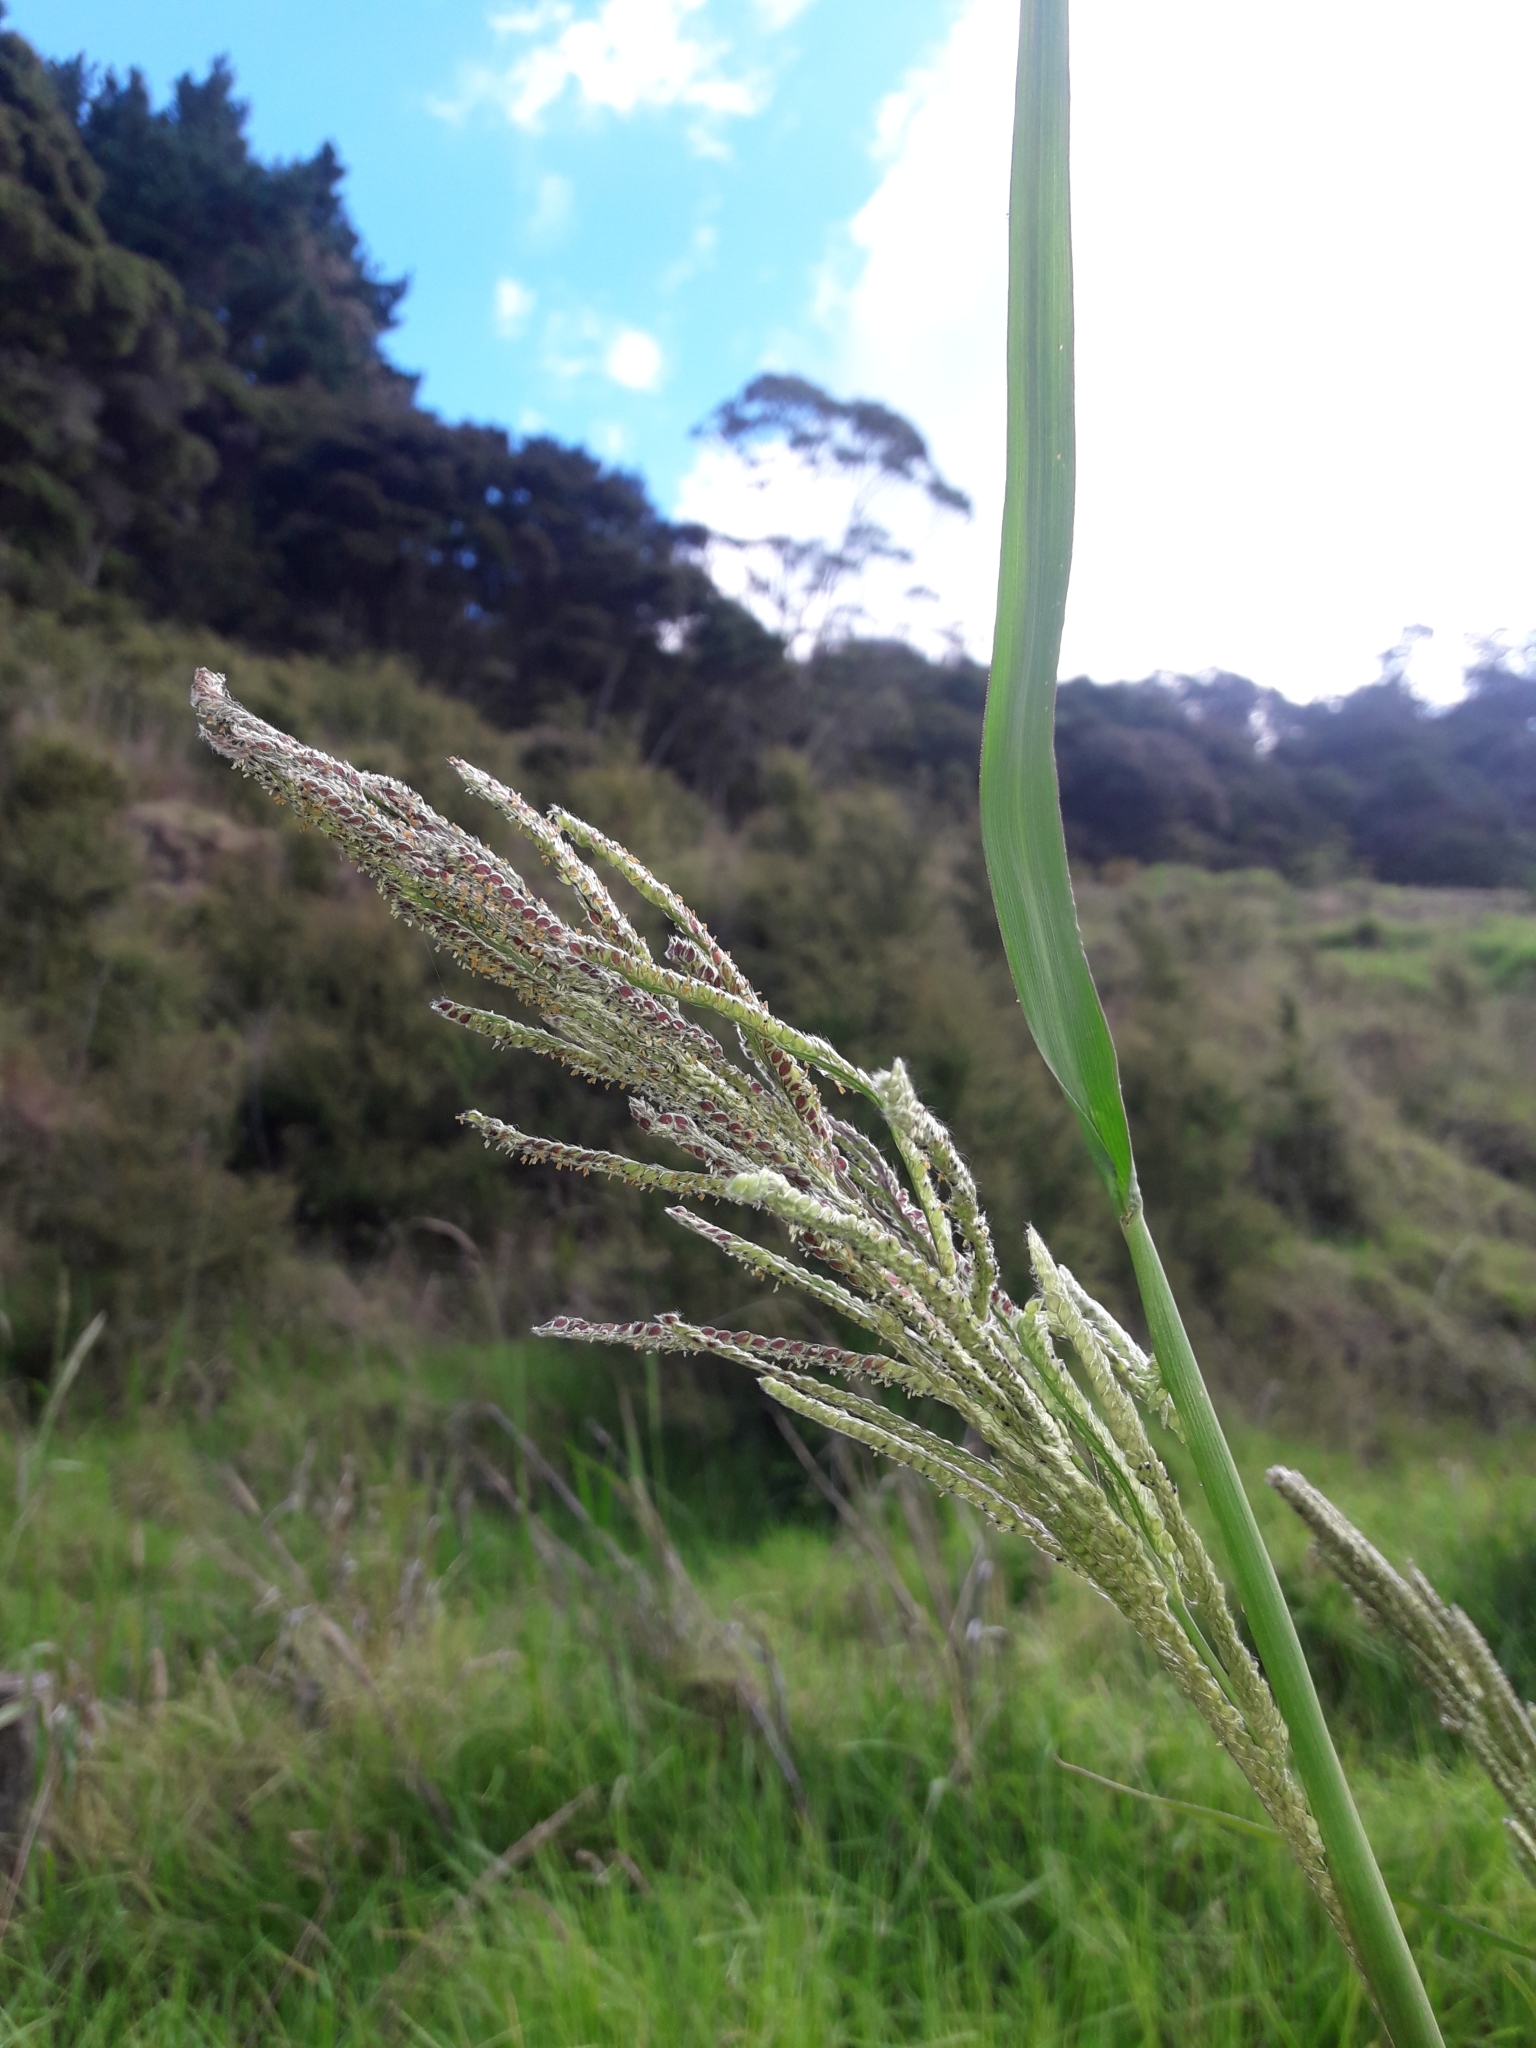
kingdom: Plantae
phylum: Tracheophyta
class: Liliopsida
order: Poales
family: Poaceae
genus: Paspalum
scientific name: Paspalum urvillei
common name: Vasey's grass
